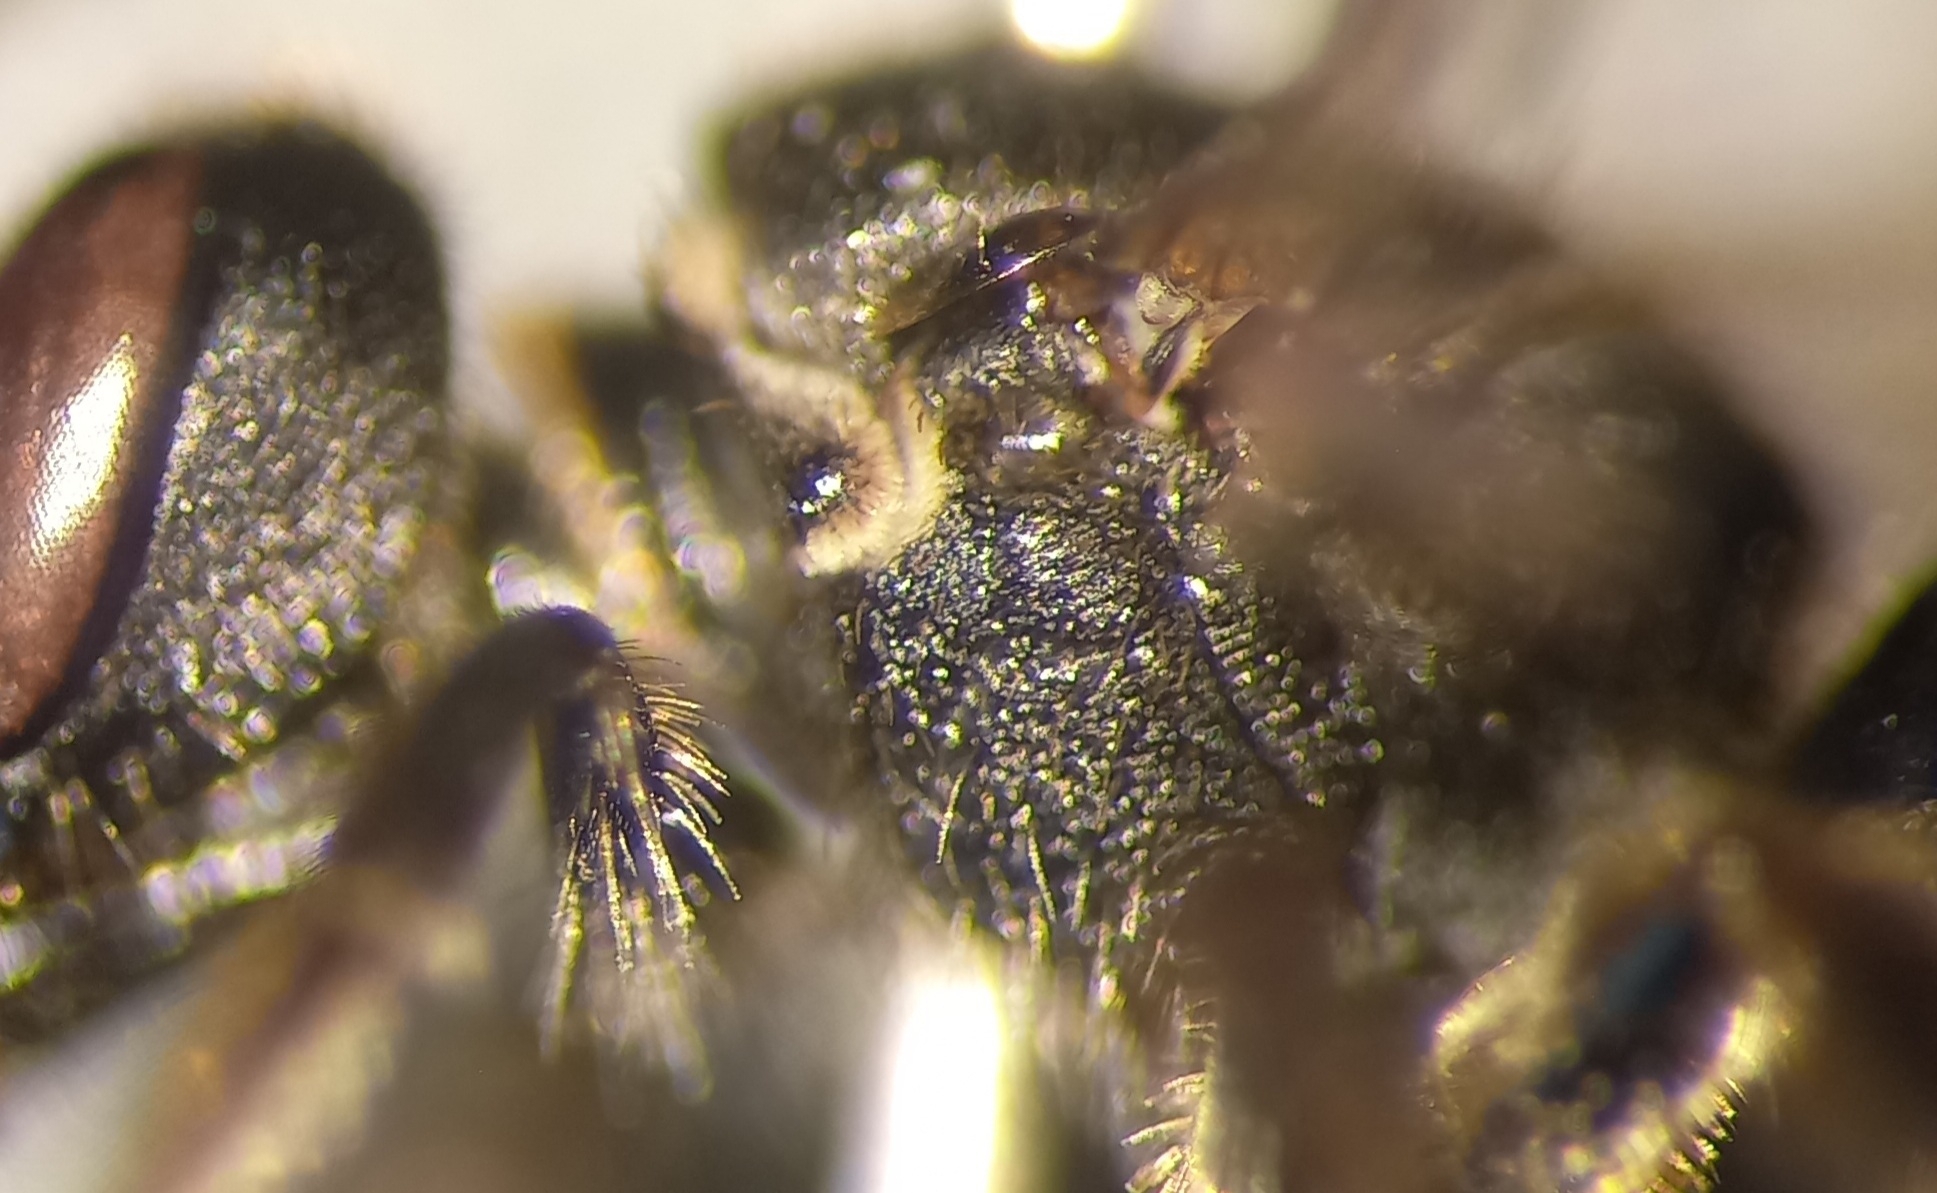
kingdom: Animalia
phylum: Arthropoda
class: Insecta
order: Hymenoptera
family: Halictidae
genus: Lasioglossum
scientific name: Lasioglossum interruptum
